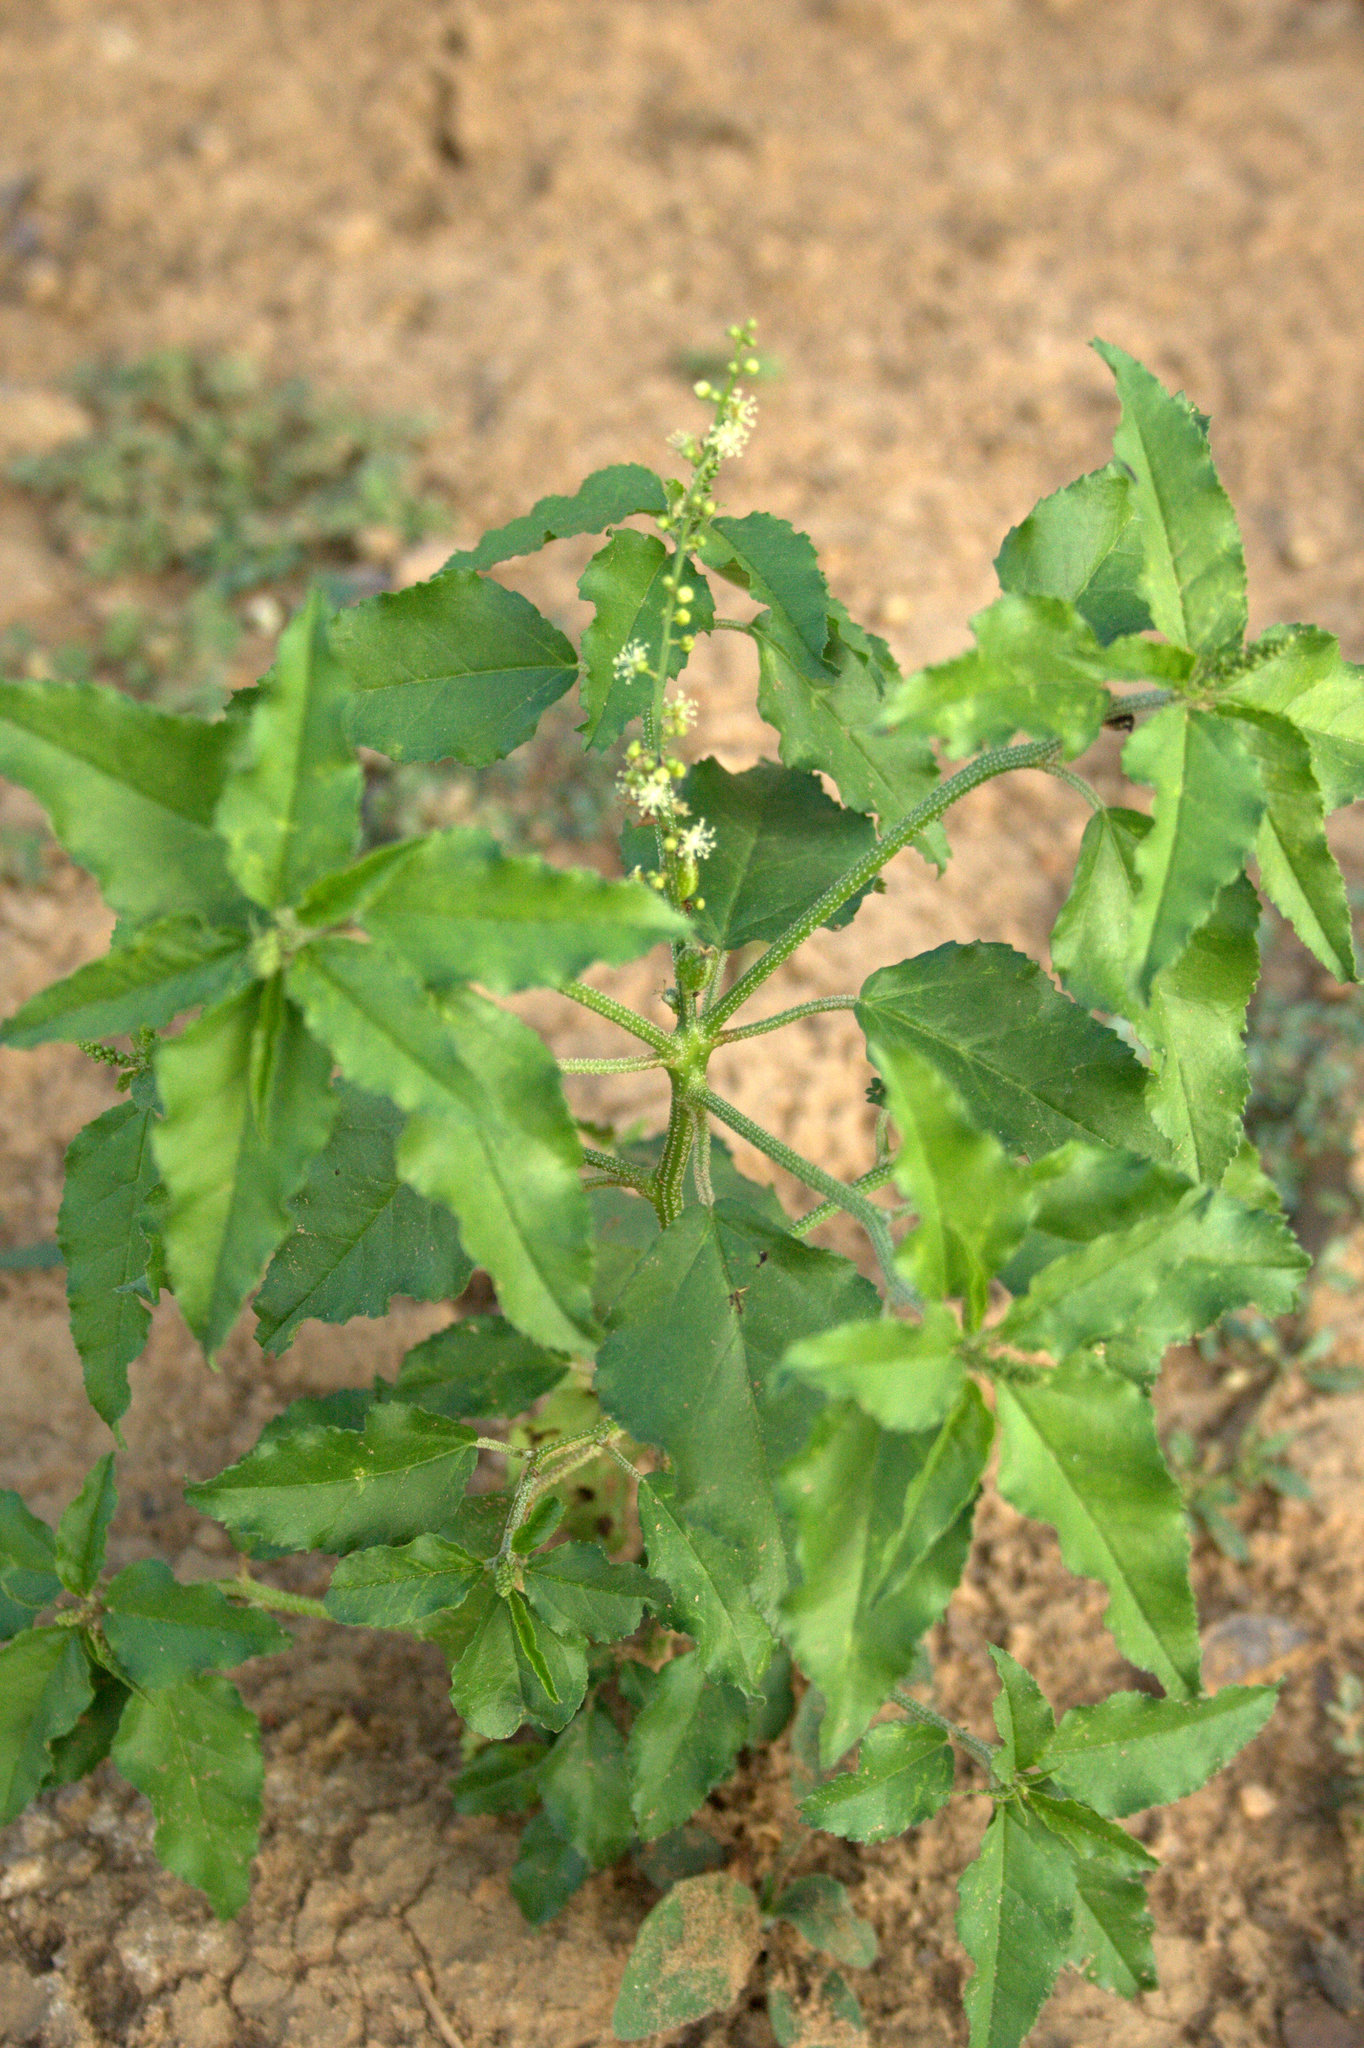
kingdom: Plantae
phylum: Tracheophyta
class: Magnoliopsida
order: Malpighiales
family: Euphorbiaceae
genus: Croton
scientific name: Croton bonplandianus
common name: Bonpland's croton
